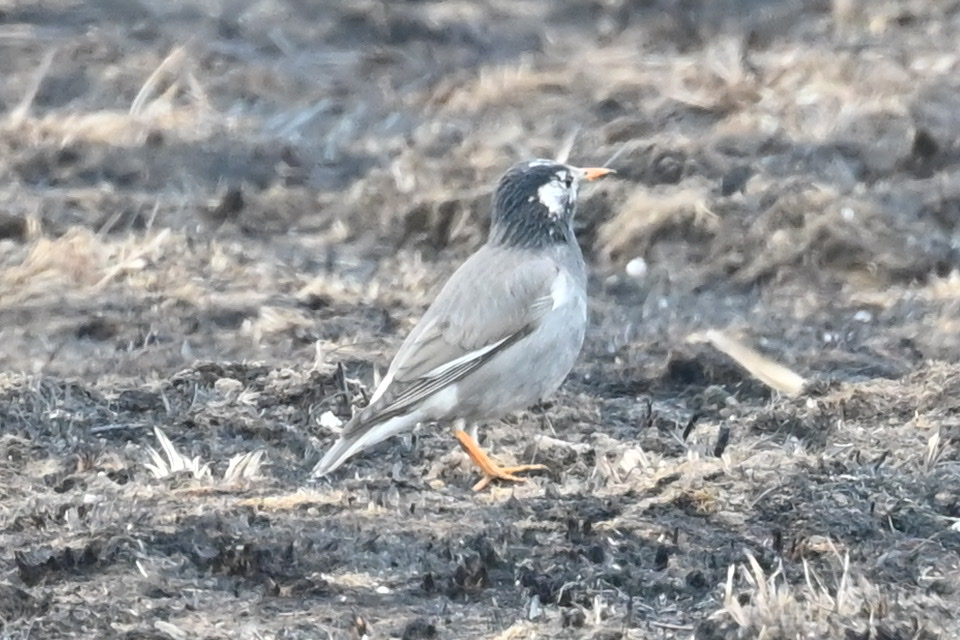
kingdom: Animalia
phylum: Chordata
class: Aves
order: Passeriformes
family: Sturnidae
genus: Spodiopsar
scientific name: Spodiopsar cineraceus
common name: White-cheeked starling
